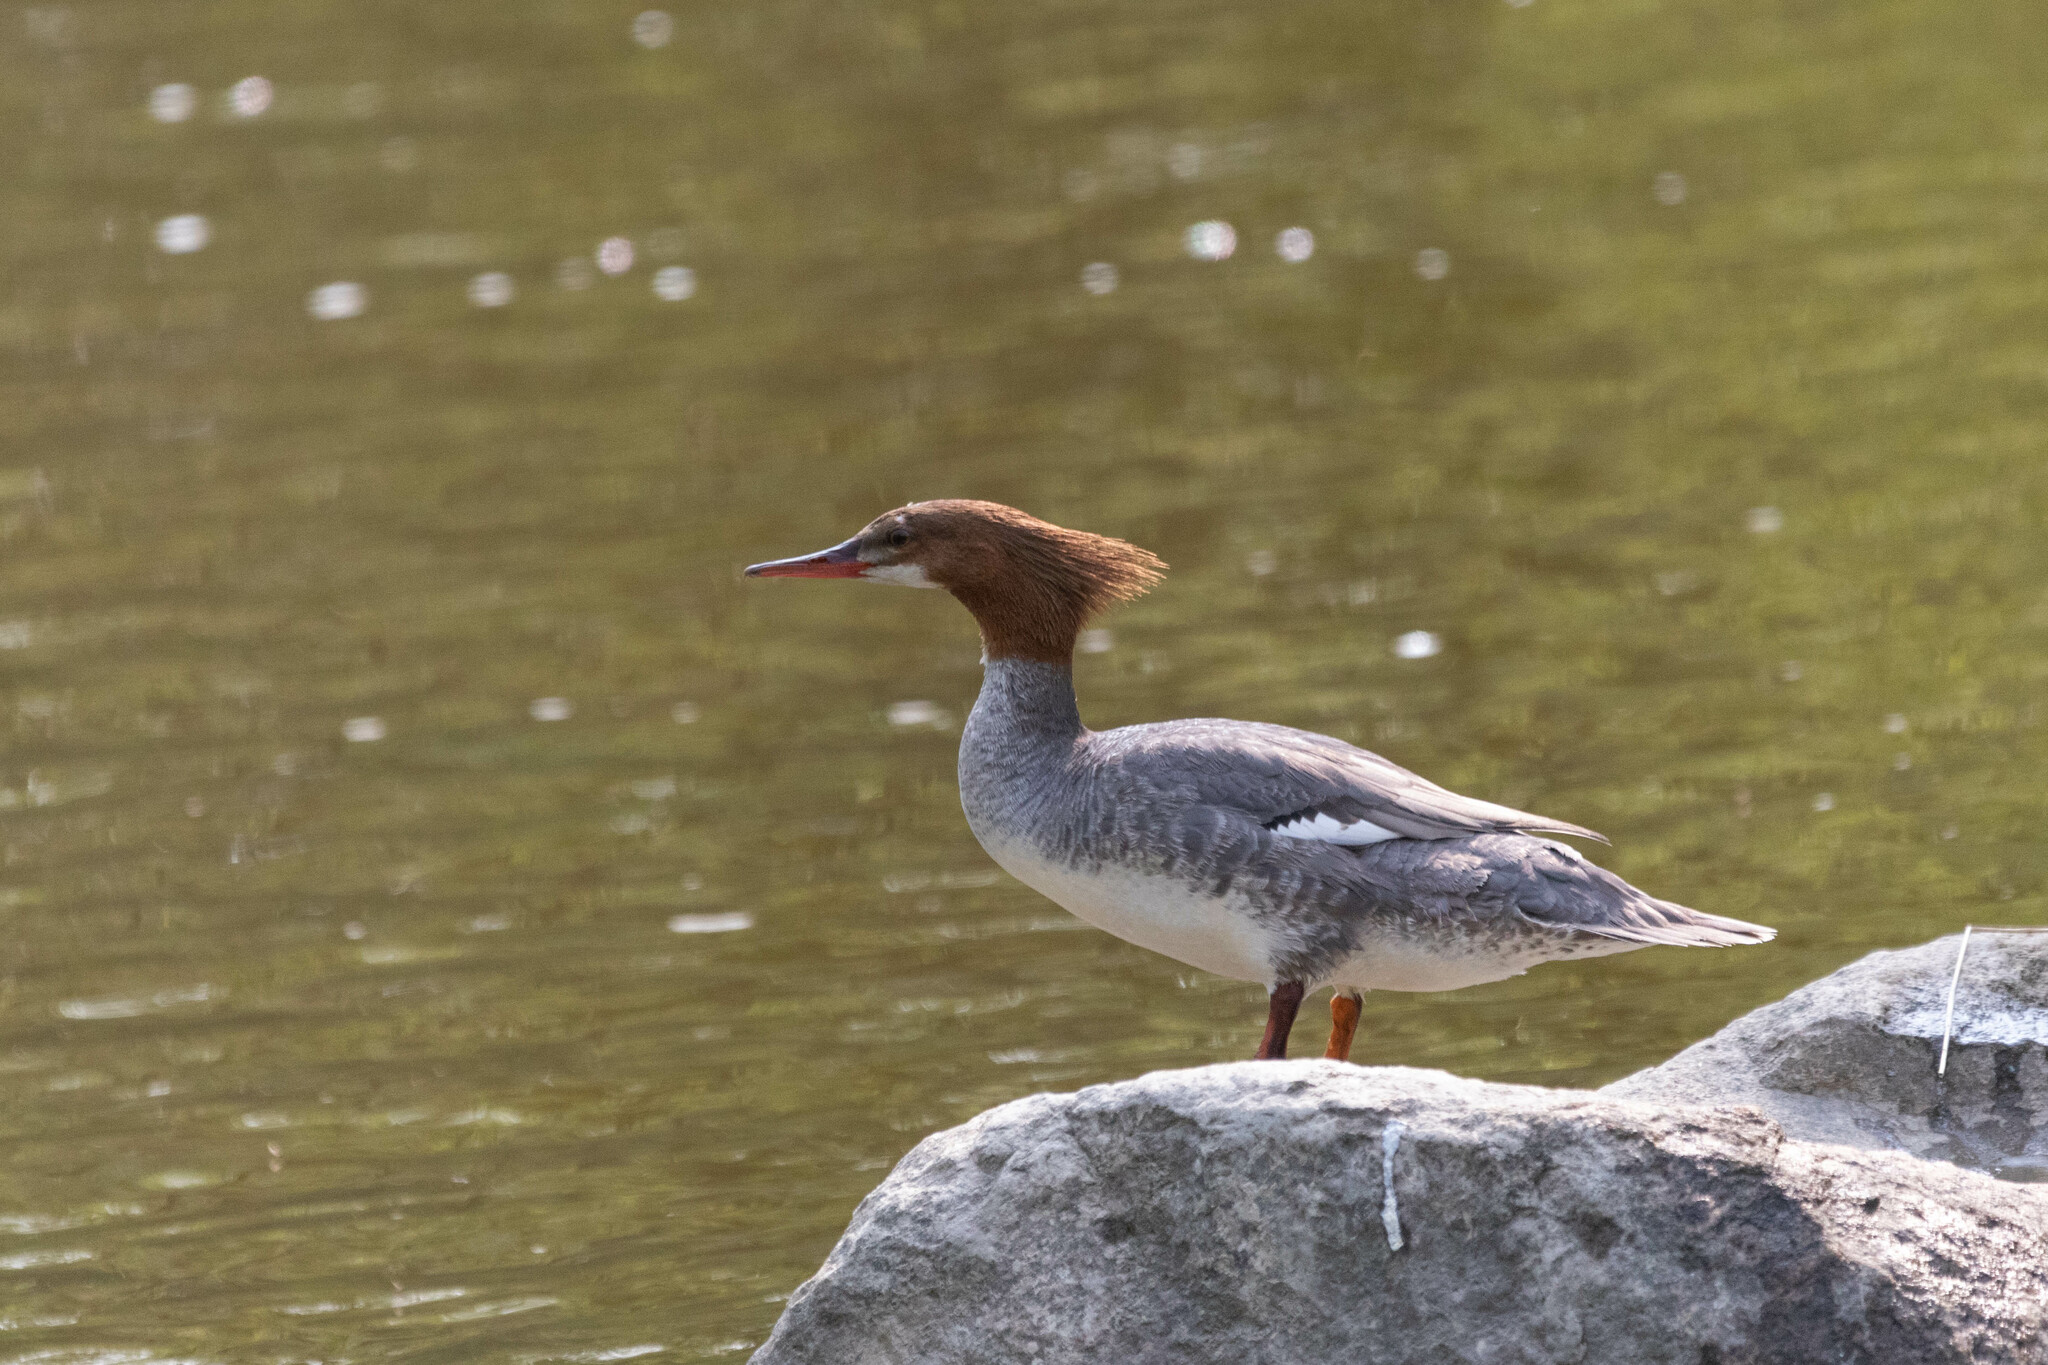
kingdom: Animalia
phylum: Chordata
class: Aves
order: Anseriformes
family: Anatidae
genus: Mergus
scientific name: Mergus merganser
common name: Common merganser
